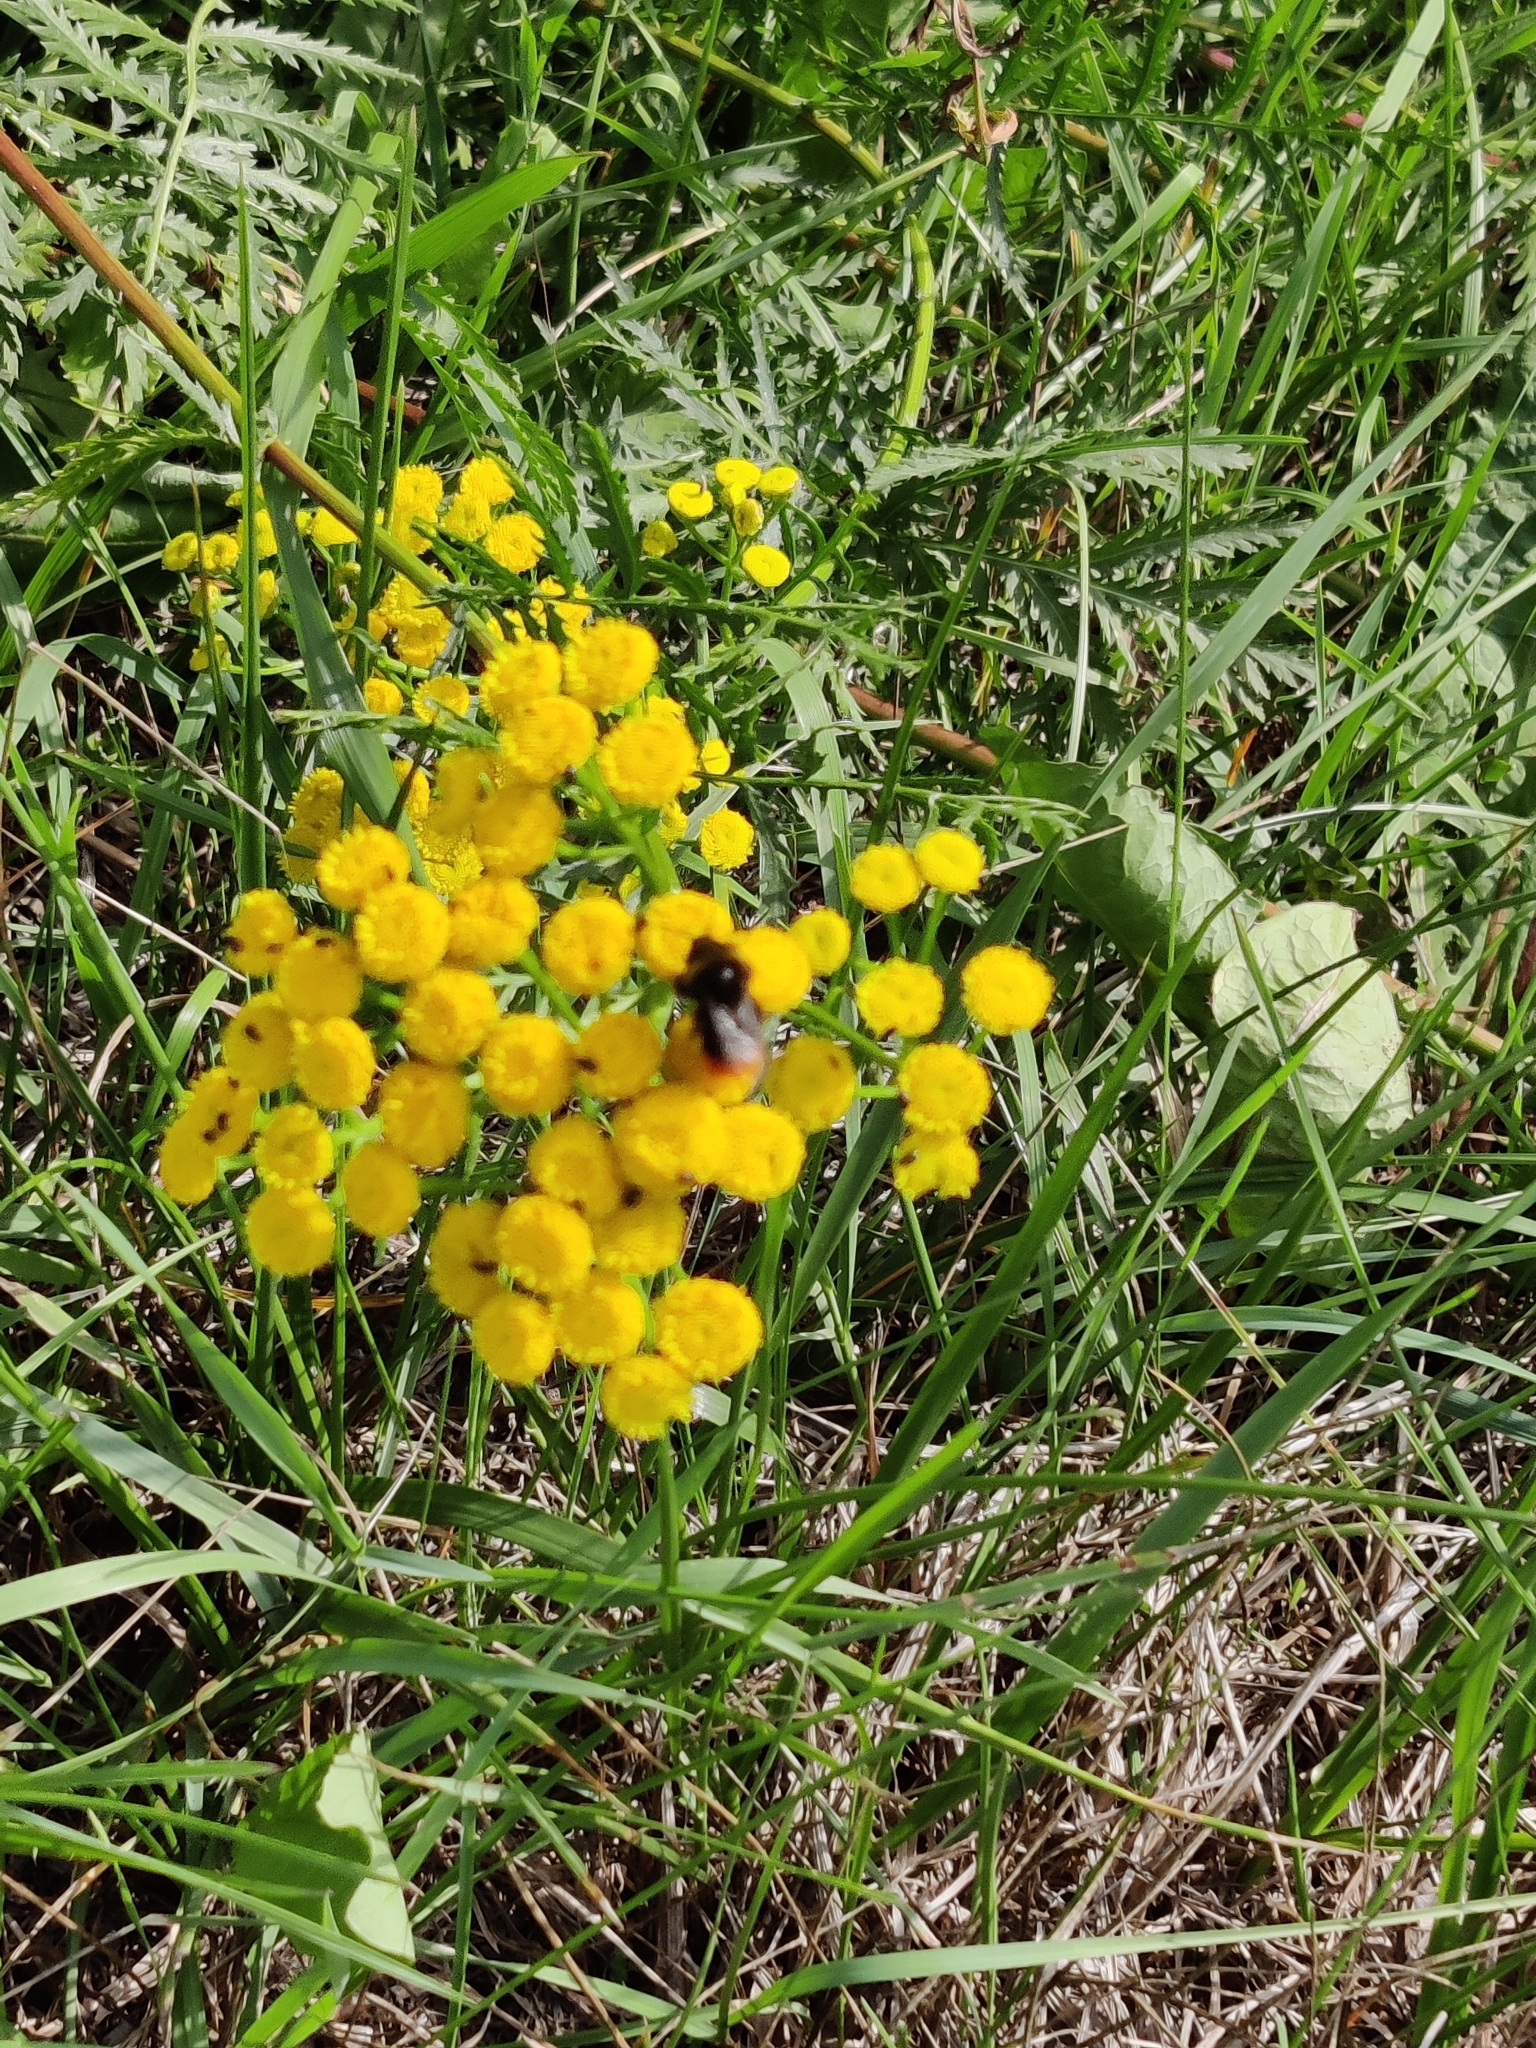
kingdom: Animalia
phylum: Arthropoda
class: Insecta
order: Hymenoptera
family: Apidae
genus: Bombus
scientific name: Bombus lapidarius
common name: Large red-tailed humble-bee
